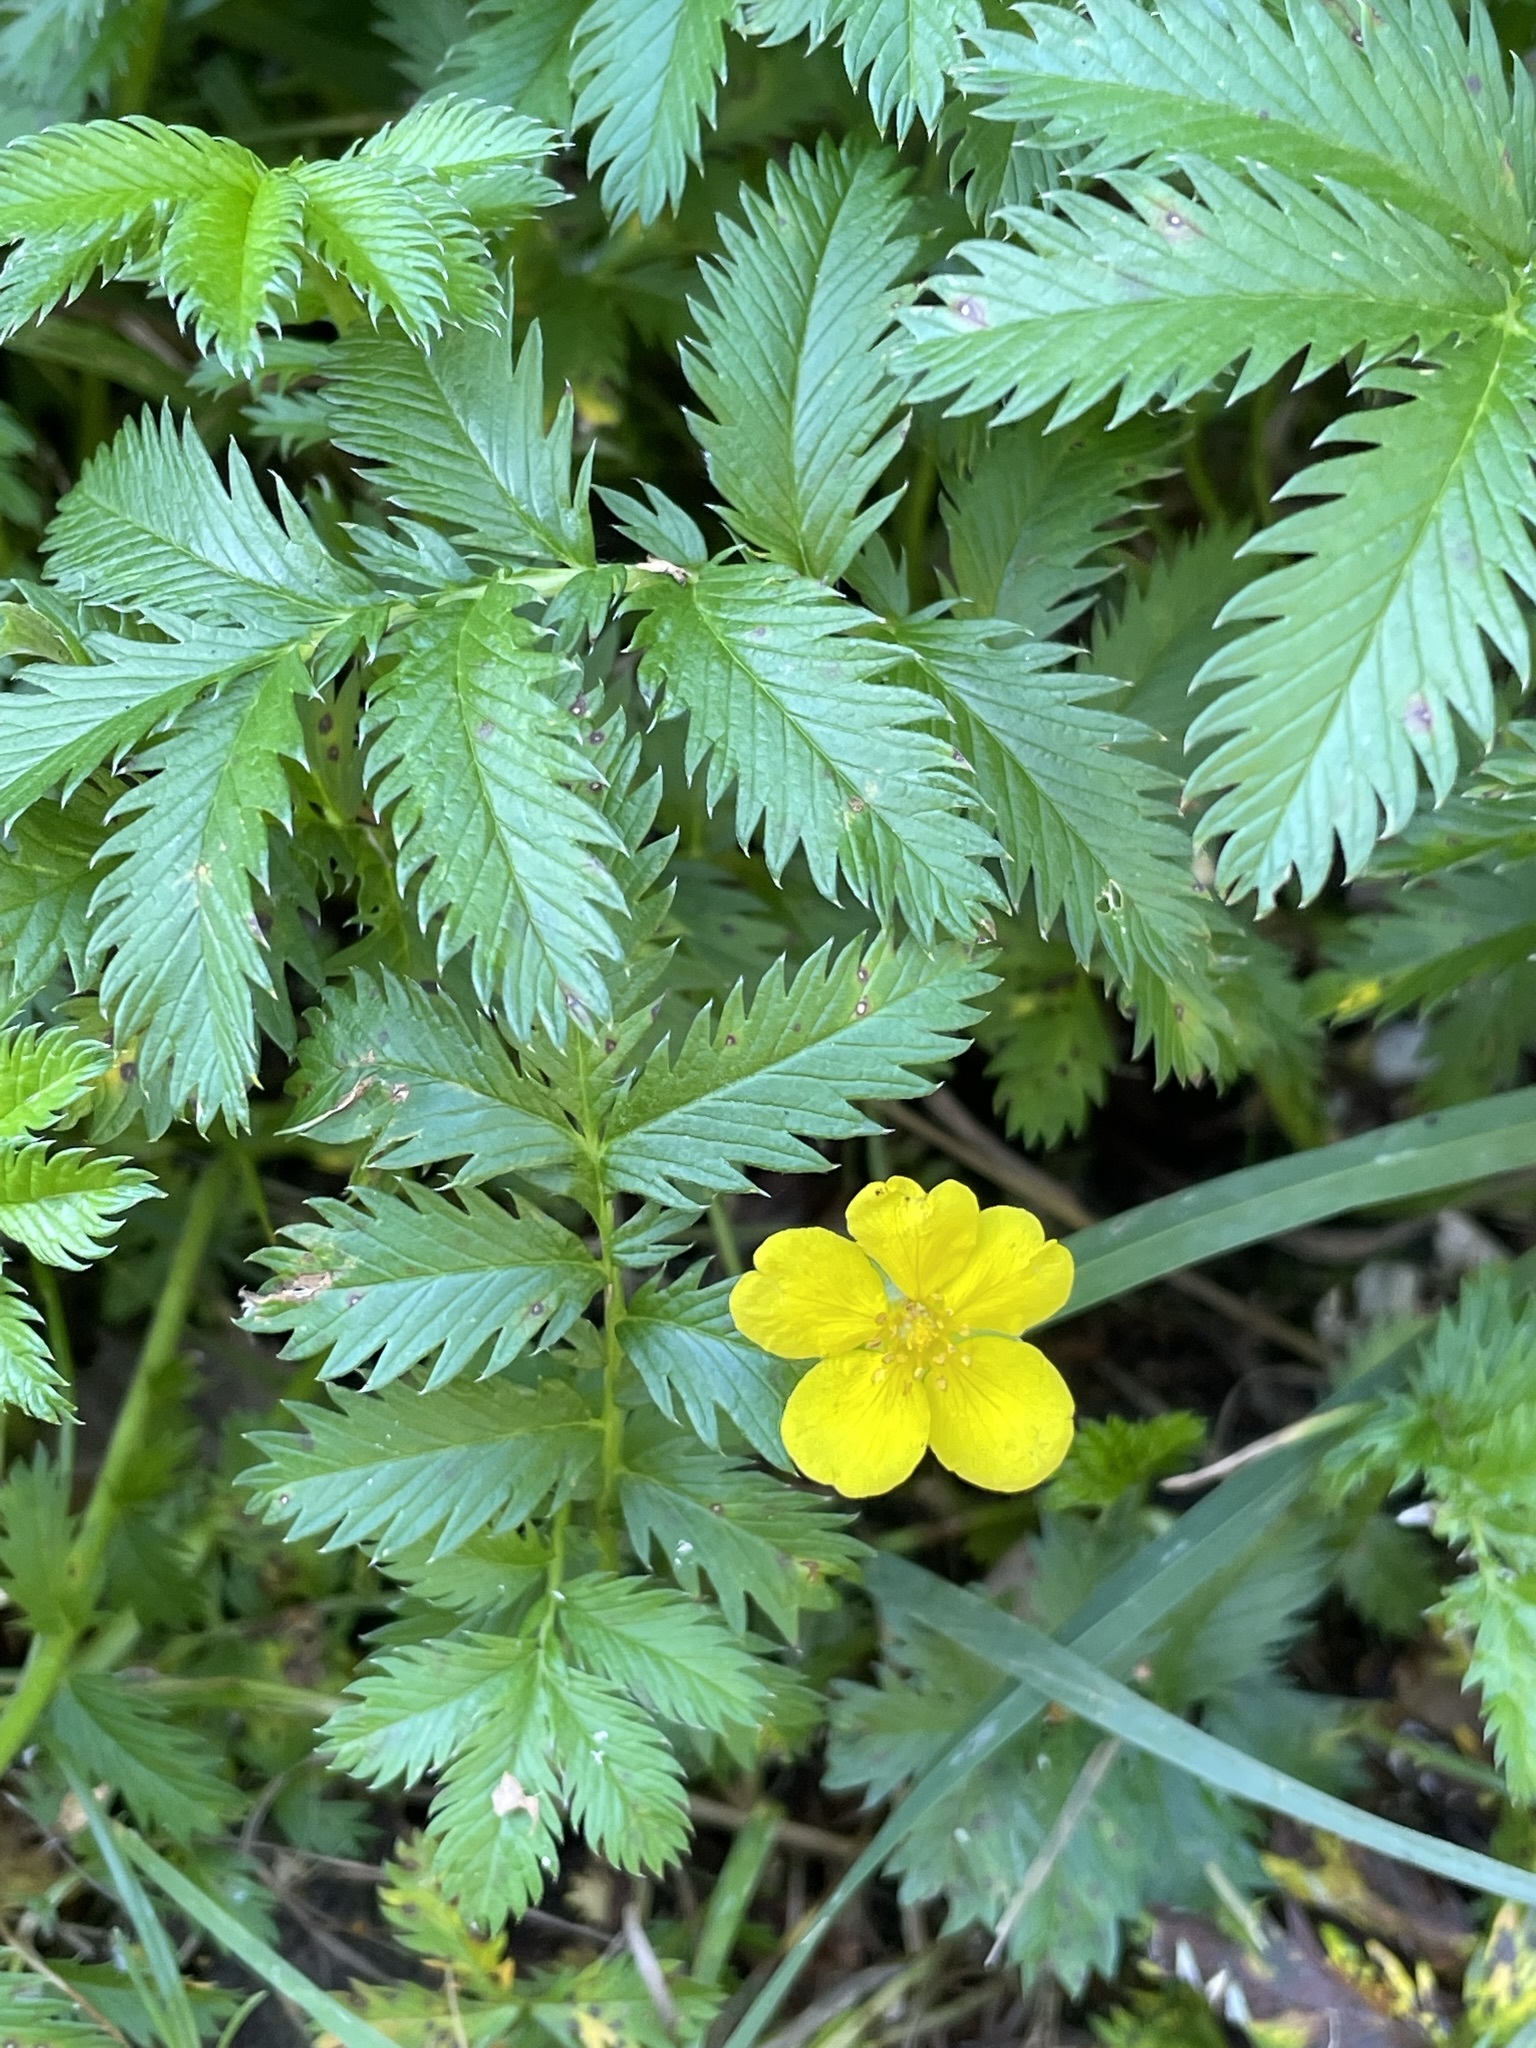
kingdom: Plantae
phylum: Tracheophyta
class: Magnoliopsida
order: Rosales
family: Rosaceae
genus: Argentina
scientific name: Argentina anserina
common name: Common silverweed
